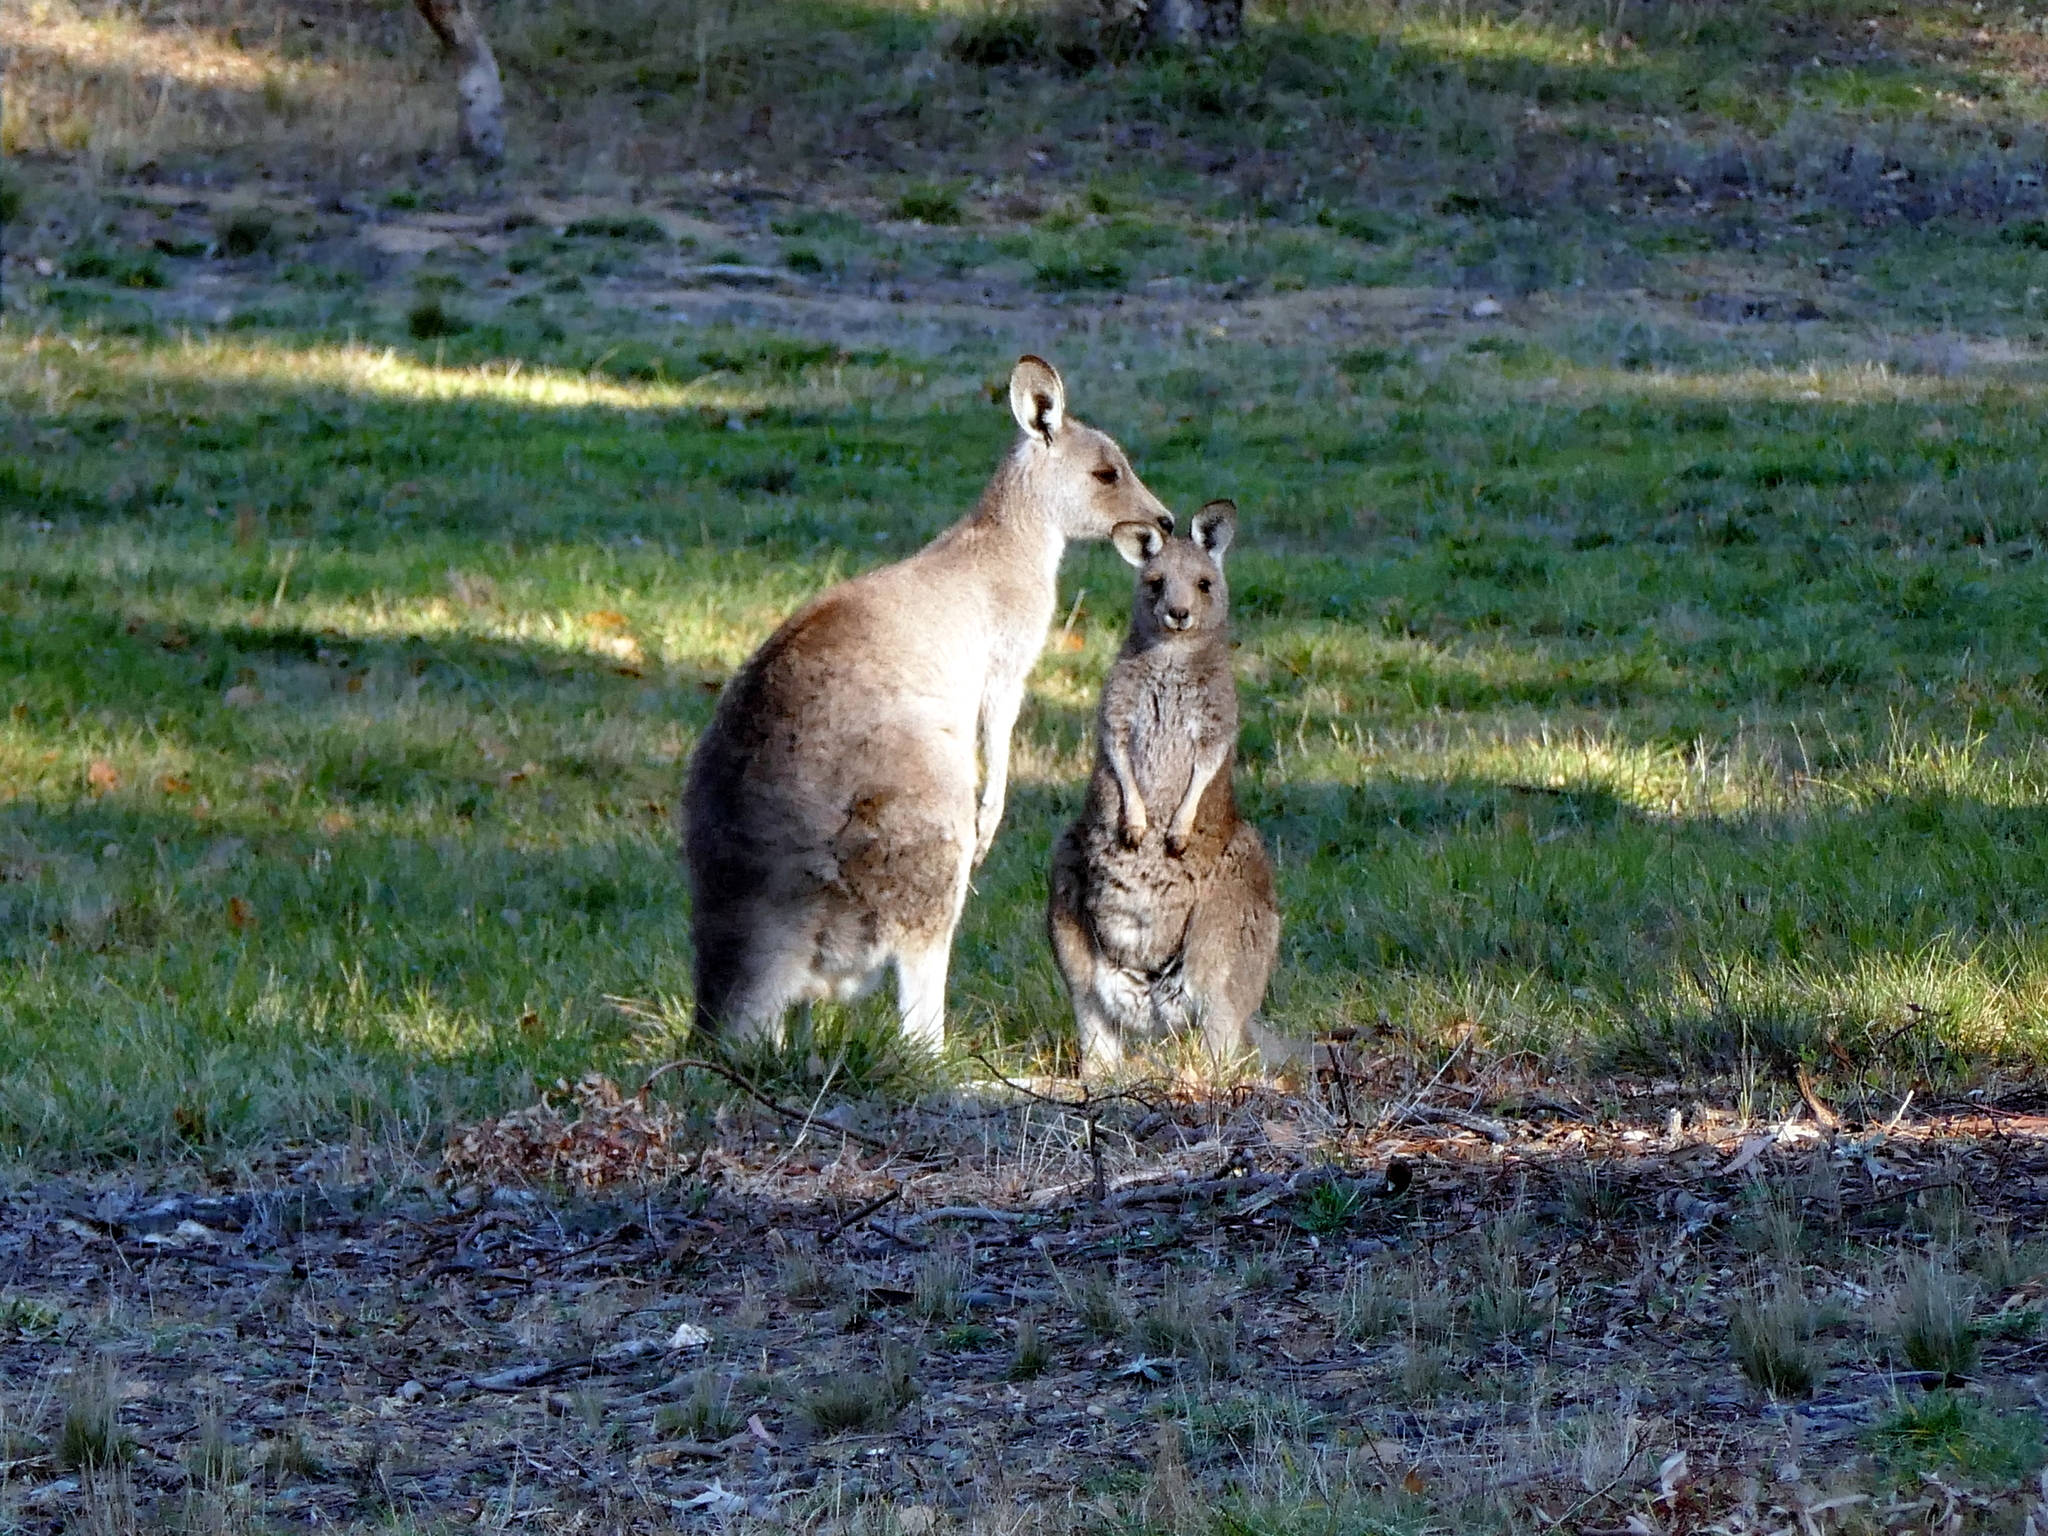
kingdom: Animalia
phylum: Chordata
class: Mammalia
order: Diprotodontia
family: Macropodidae
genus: Macropus
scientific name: Macropus giganteus
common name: Eastern grey kangaroo
